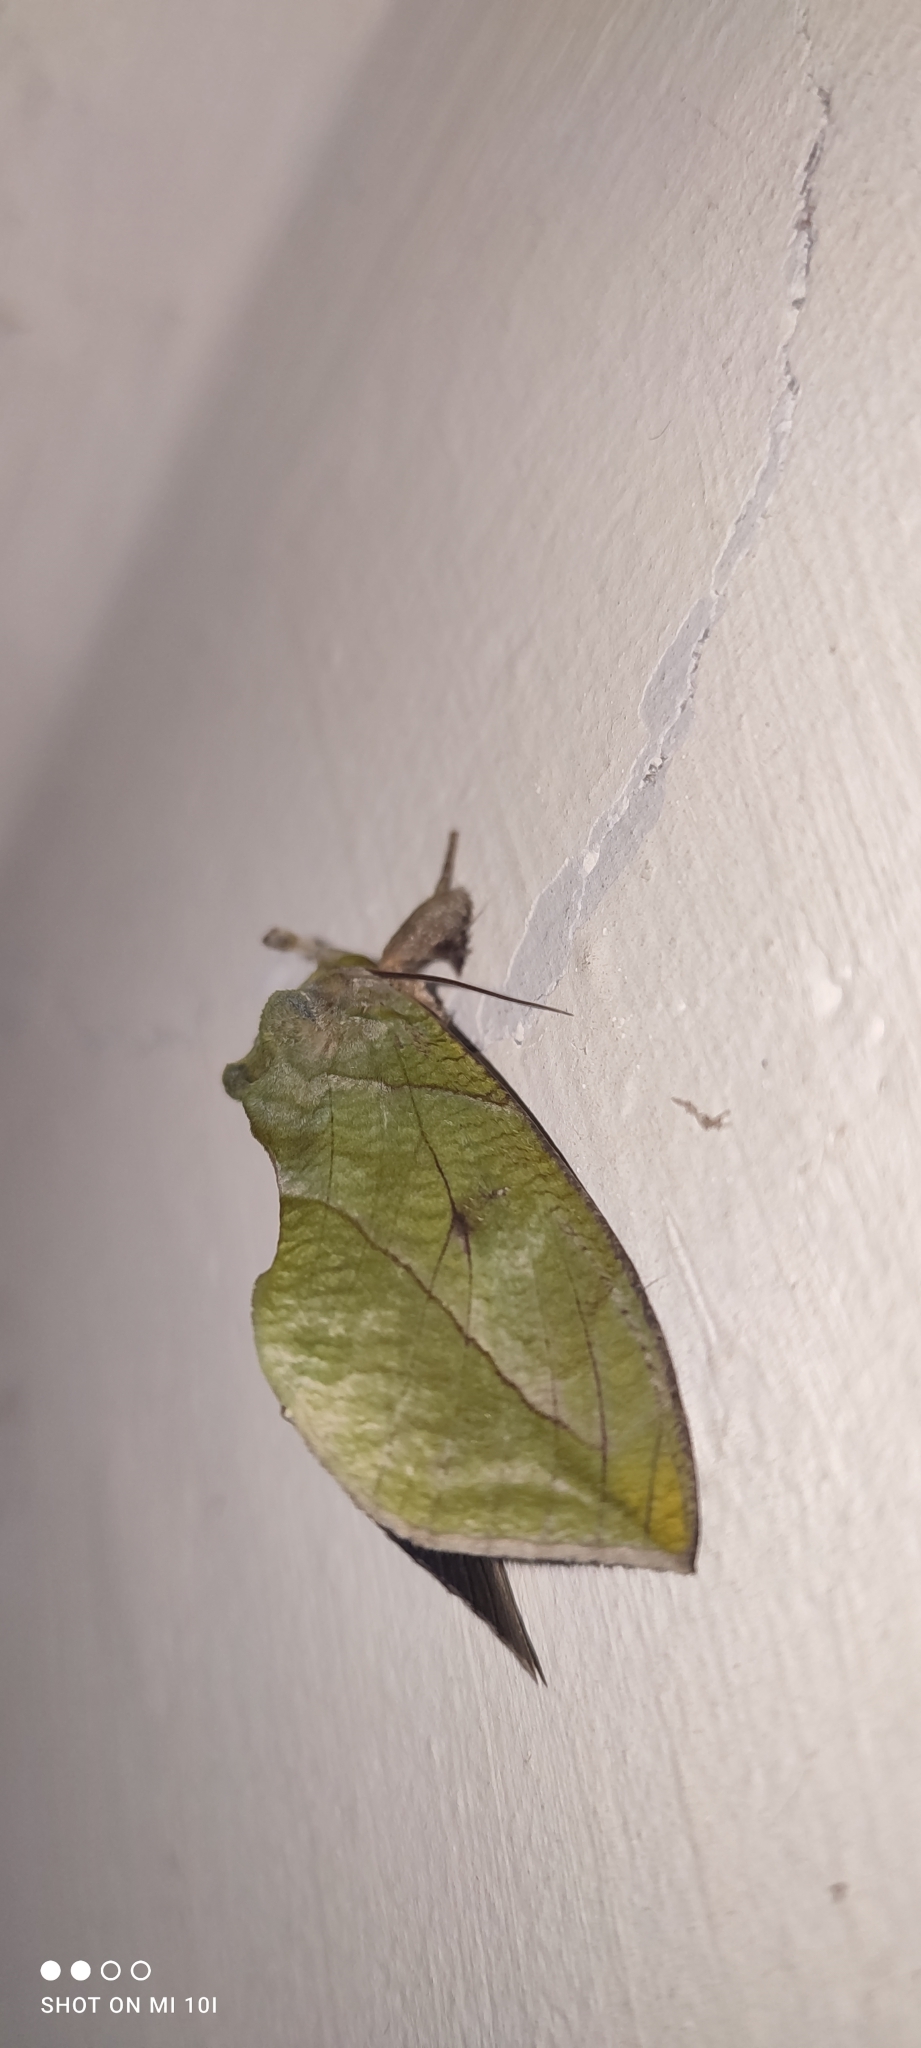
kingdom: Animalia
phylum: Arthropoda
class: Insecta
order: Lepidoptera
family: Erebidae
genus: Eudocima
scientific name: Eudocima hypermnestra
